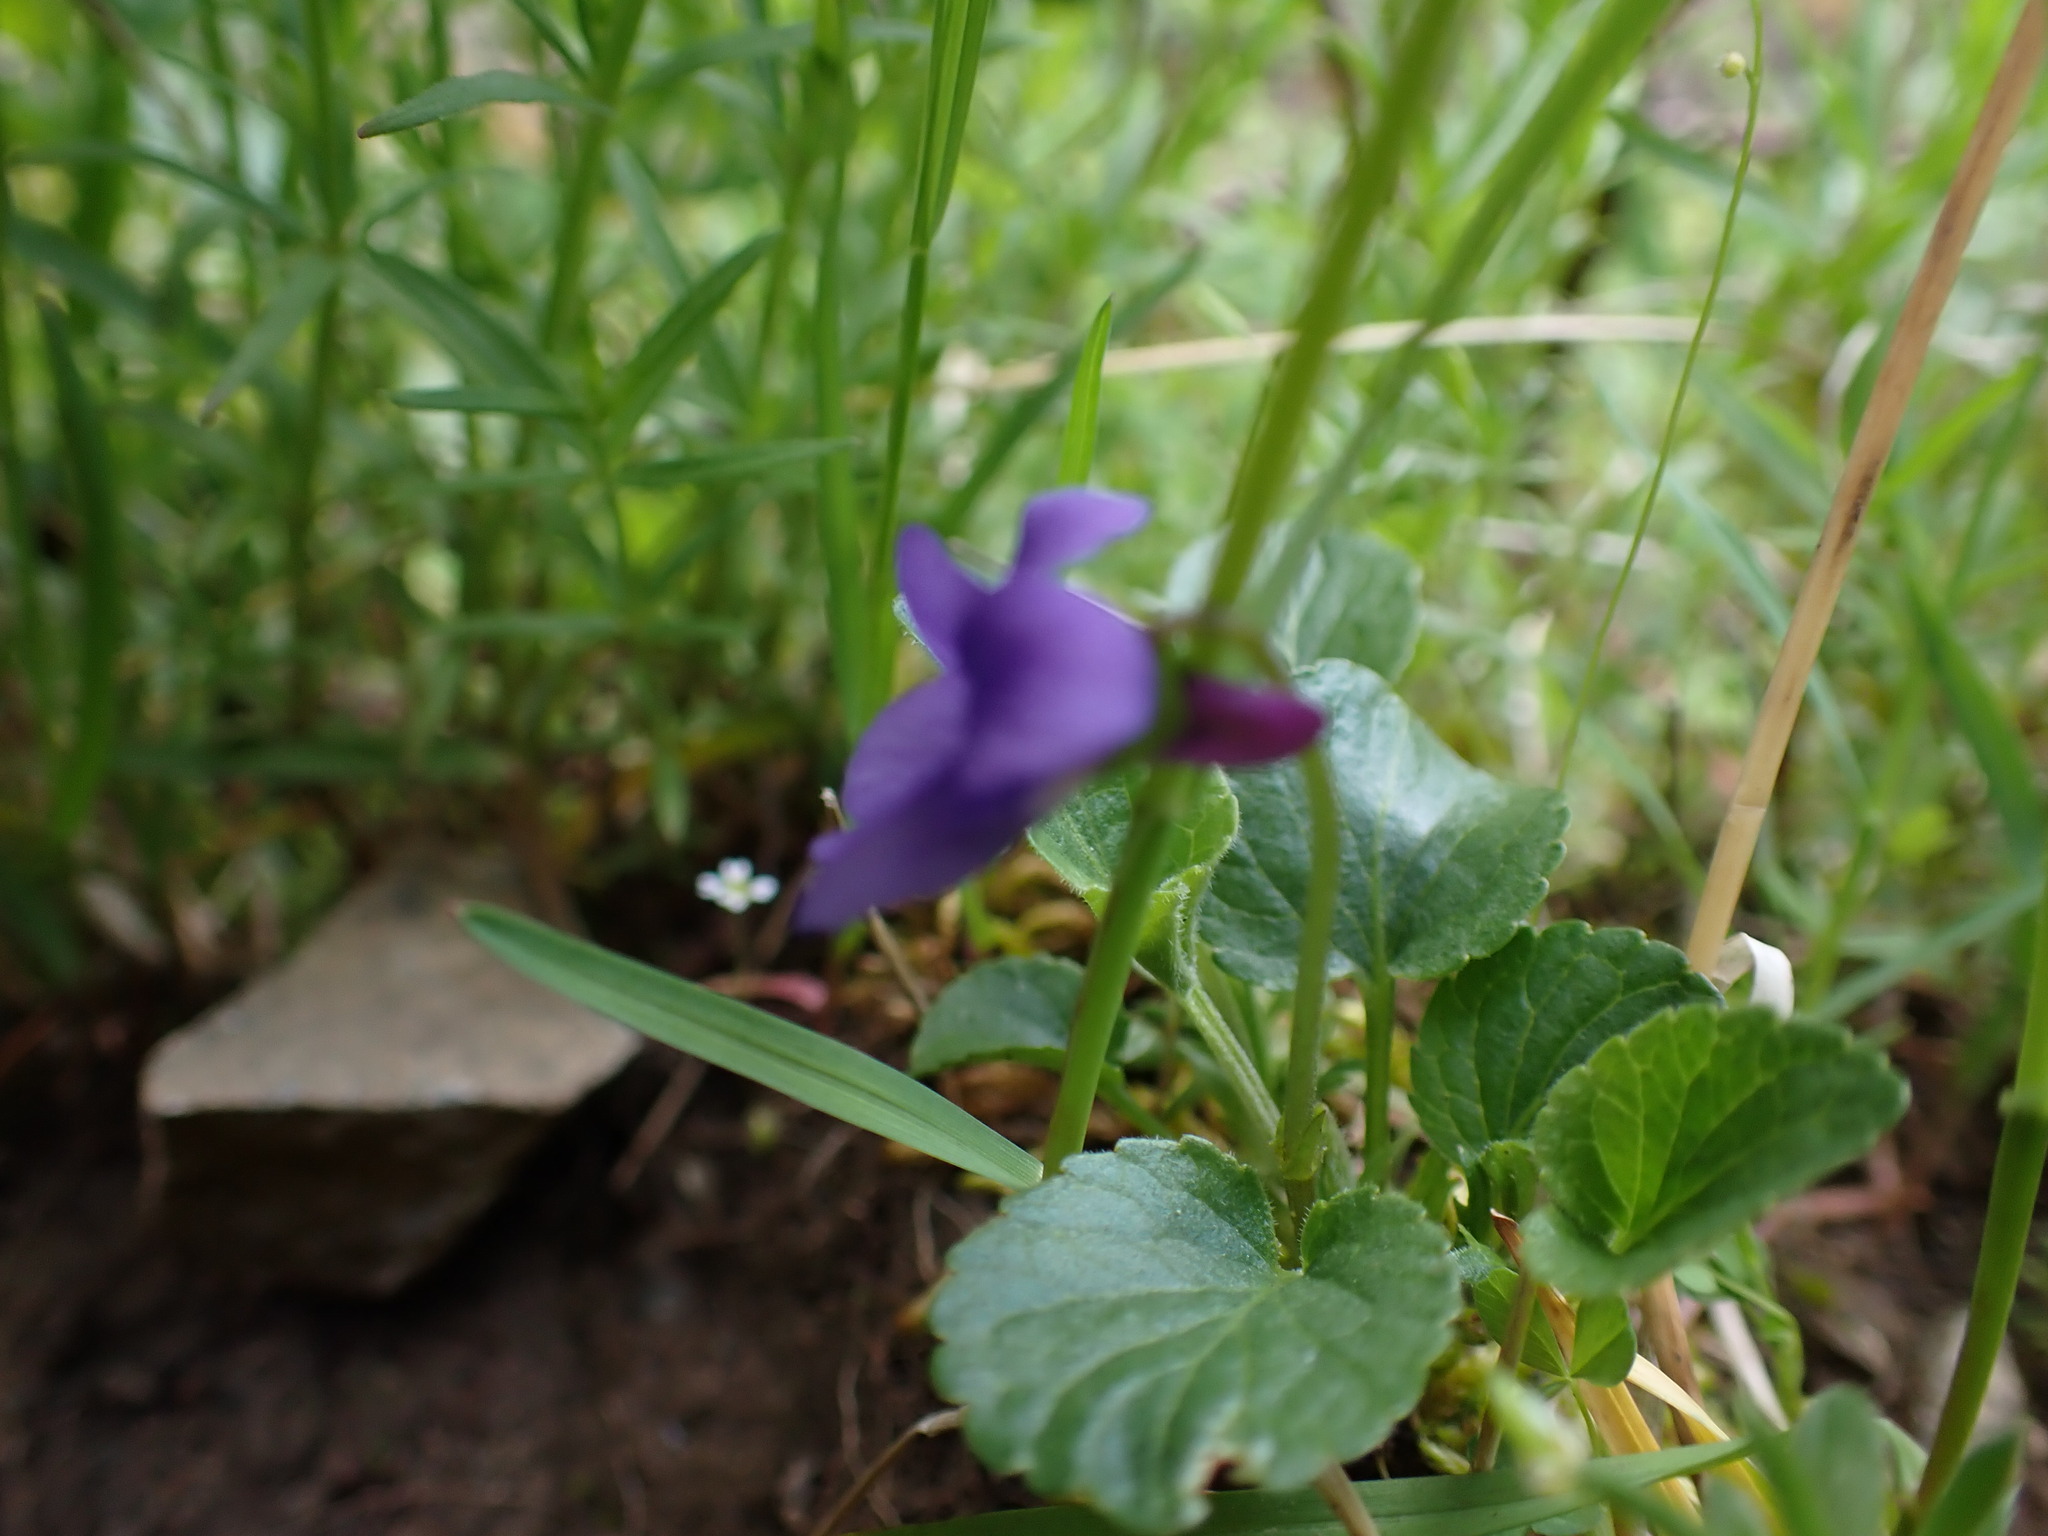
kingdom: Plantae
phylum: Tracheophyta
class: Magnoliopsida
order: Malpighiales
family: Violaceae
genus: Viola
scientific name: Viola adunca
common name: Sand violet
